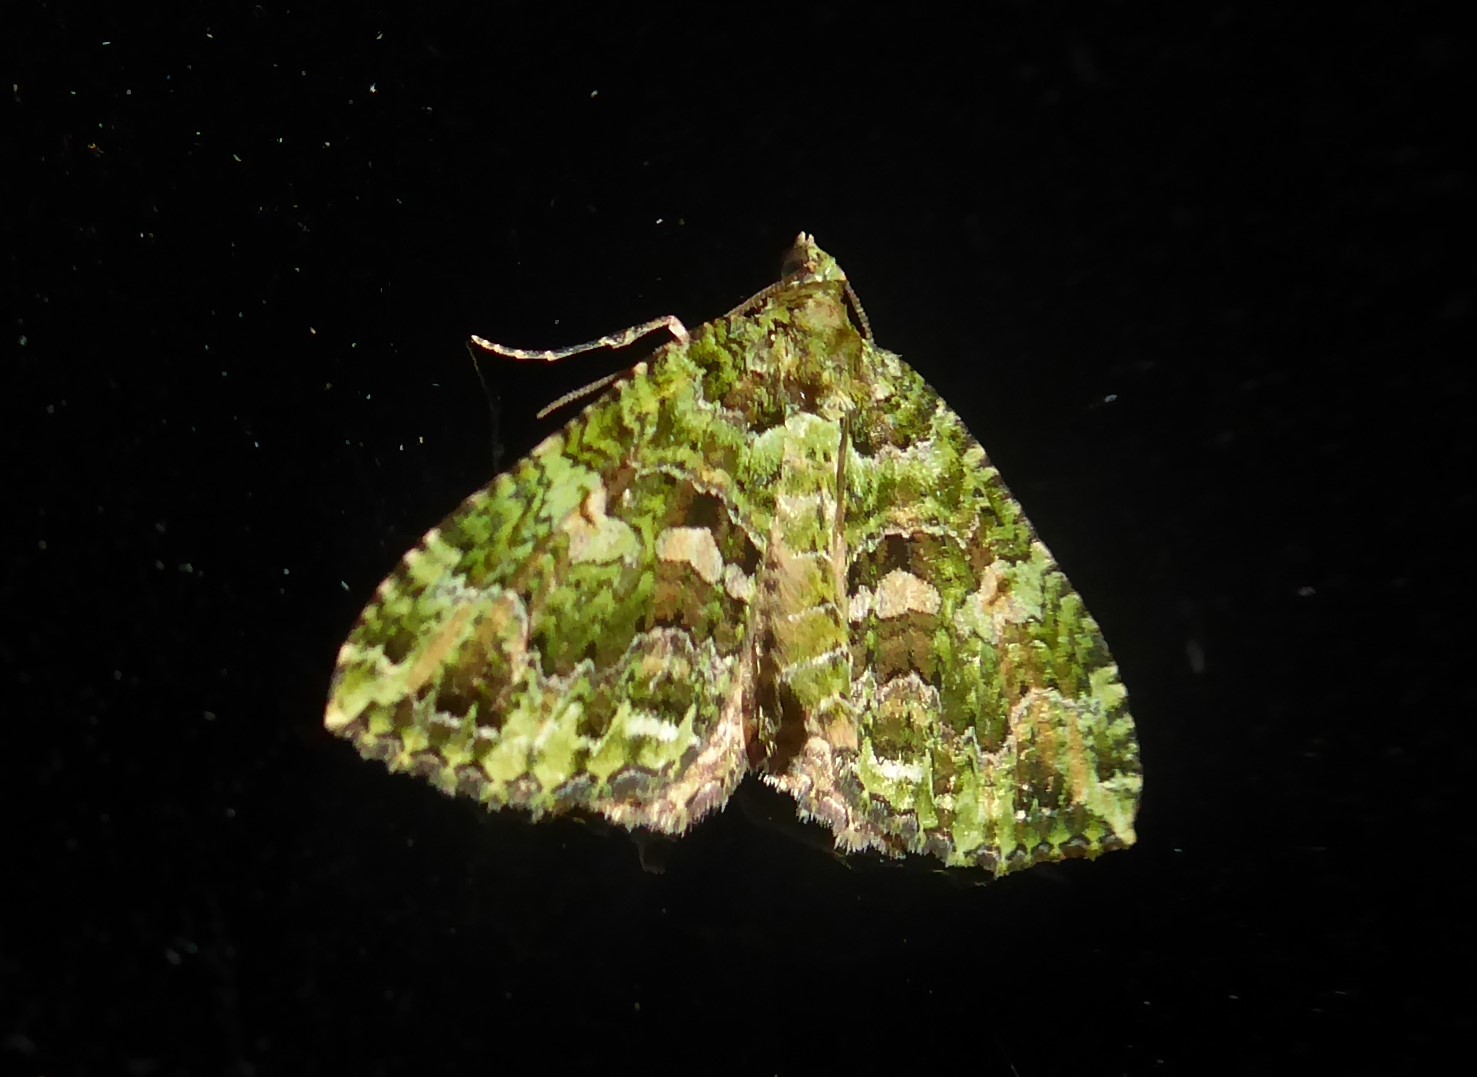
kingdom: Animalia
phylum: Arthropoda
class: Insecta
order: Lepidoptera
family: Geometridae
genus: Austrocidaria
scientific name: Austrocidaria similata
